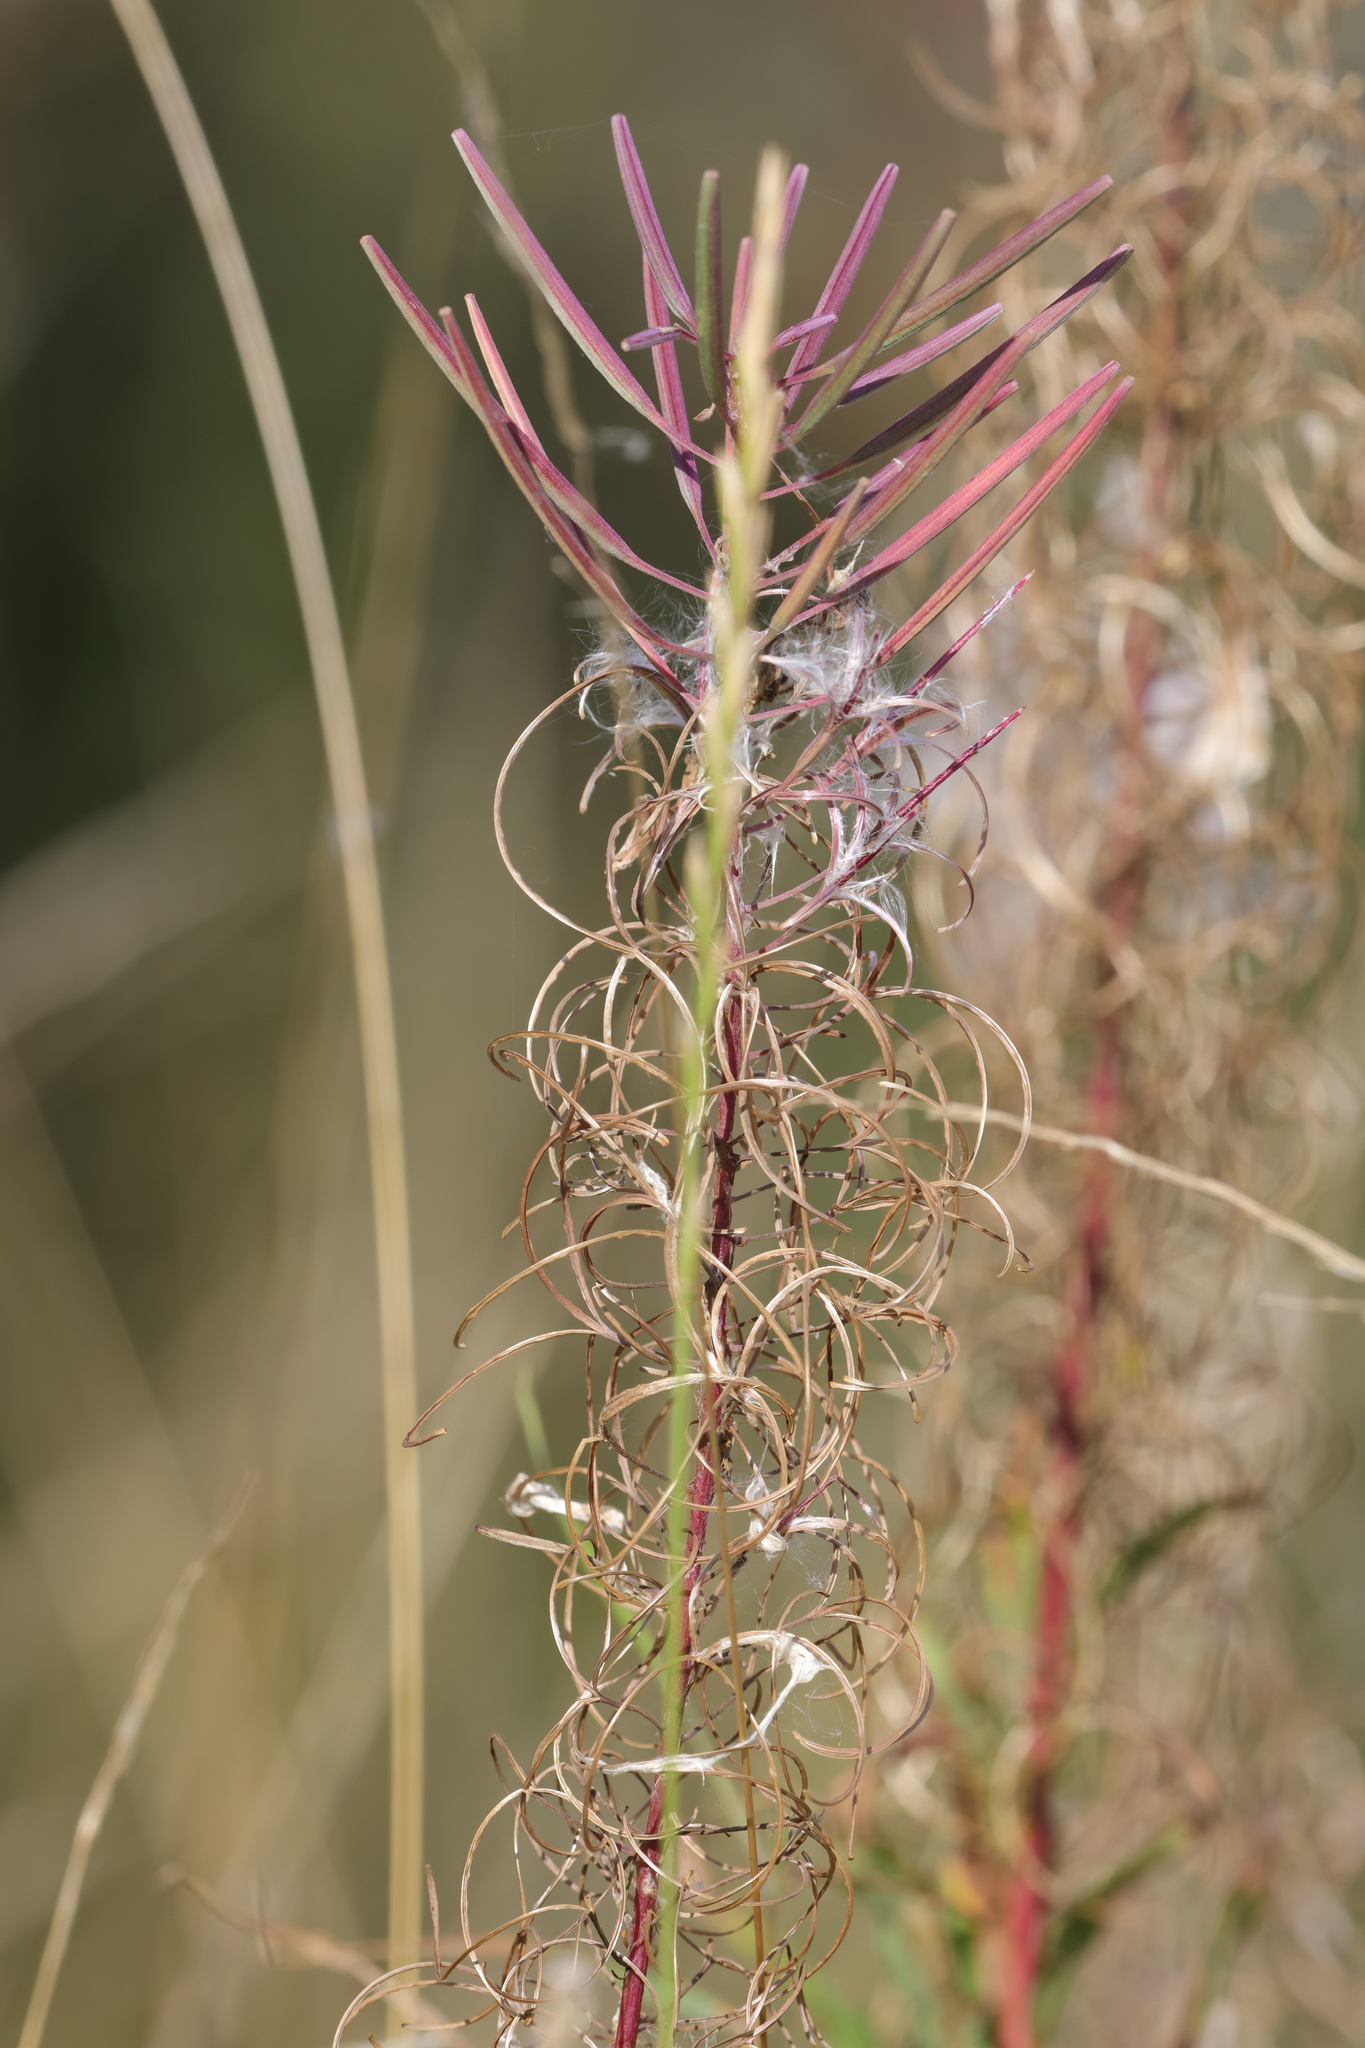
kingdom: Plantae
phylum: Tracheophyta
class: Magnoliopsida
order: Myrtales
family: Onagraceae
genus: Chamaenerion
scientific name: Chamaenerion angustifolium
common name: Fireweed
